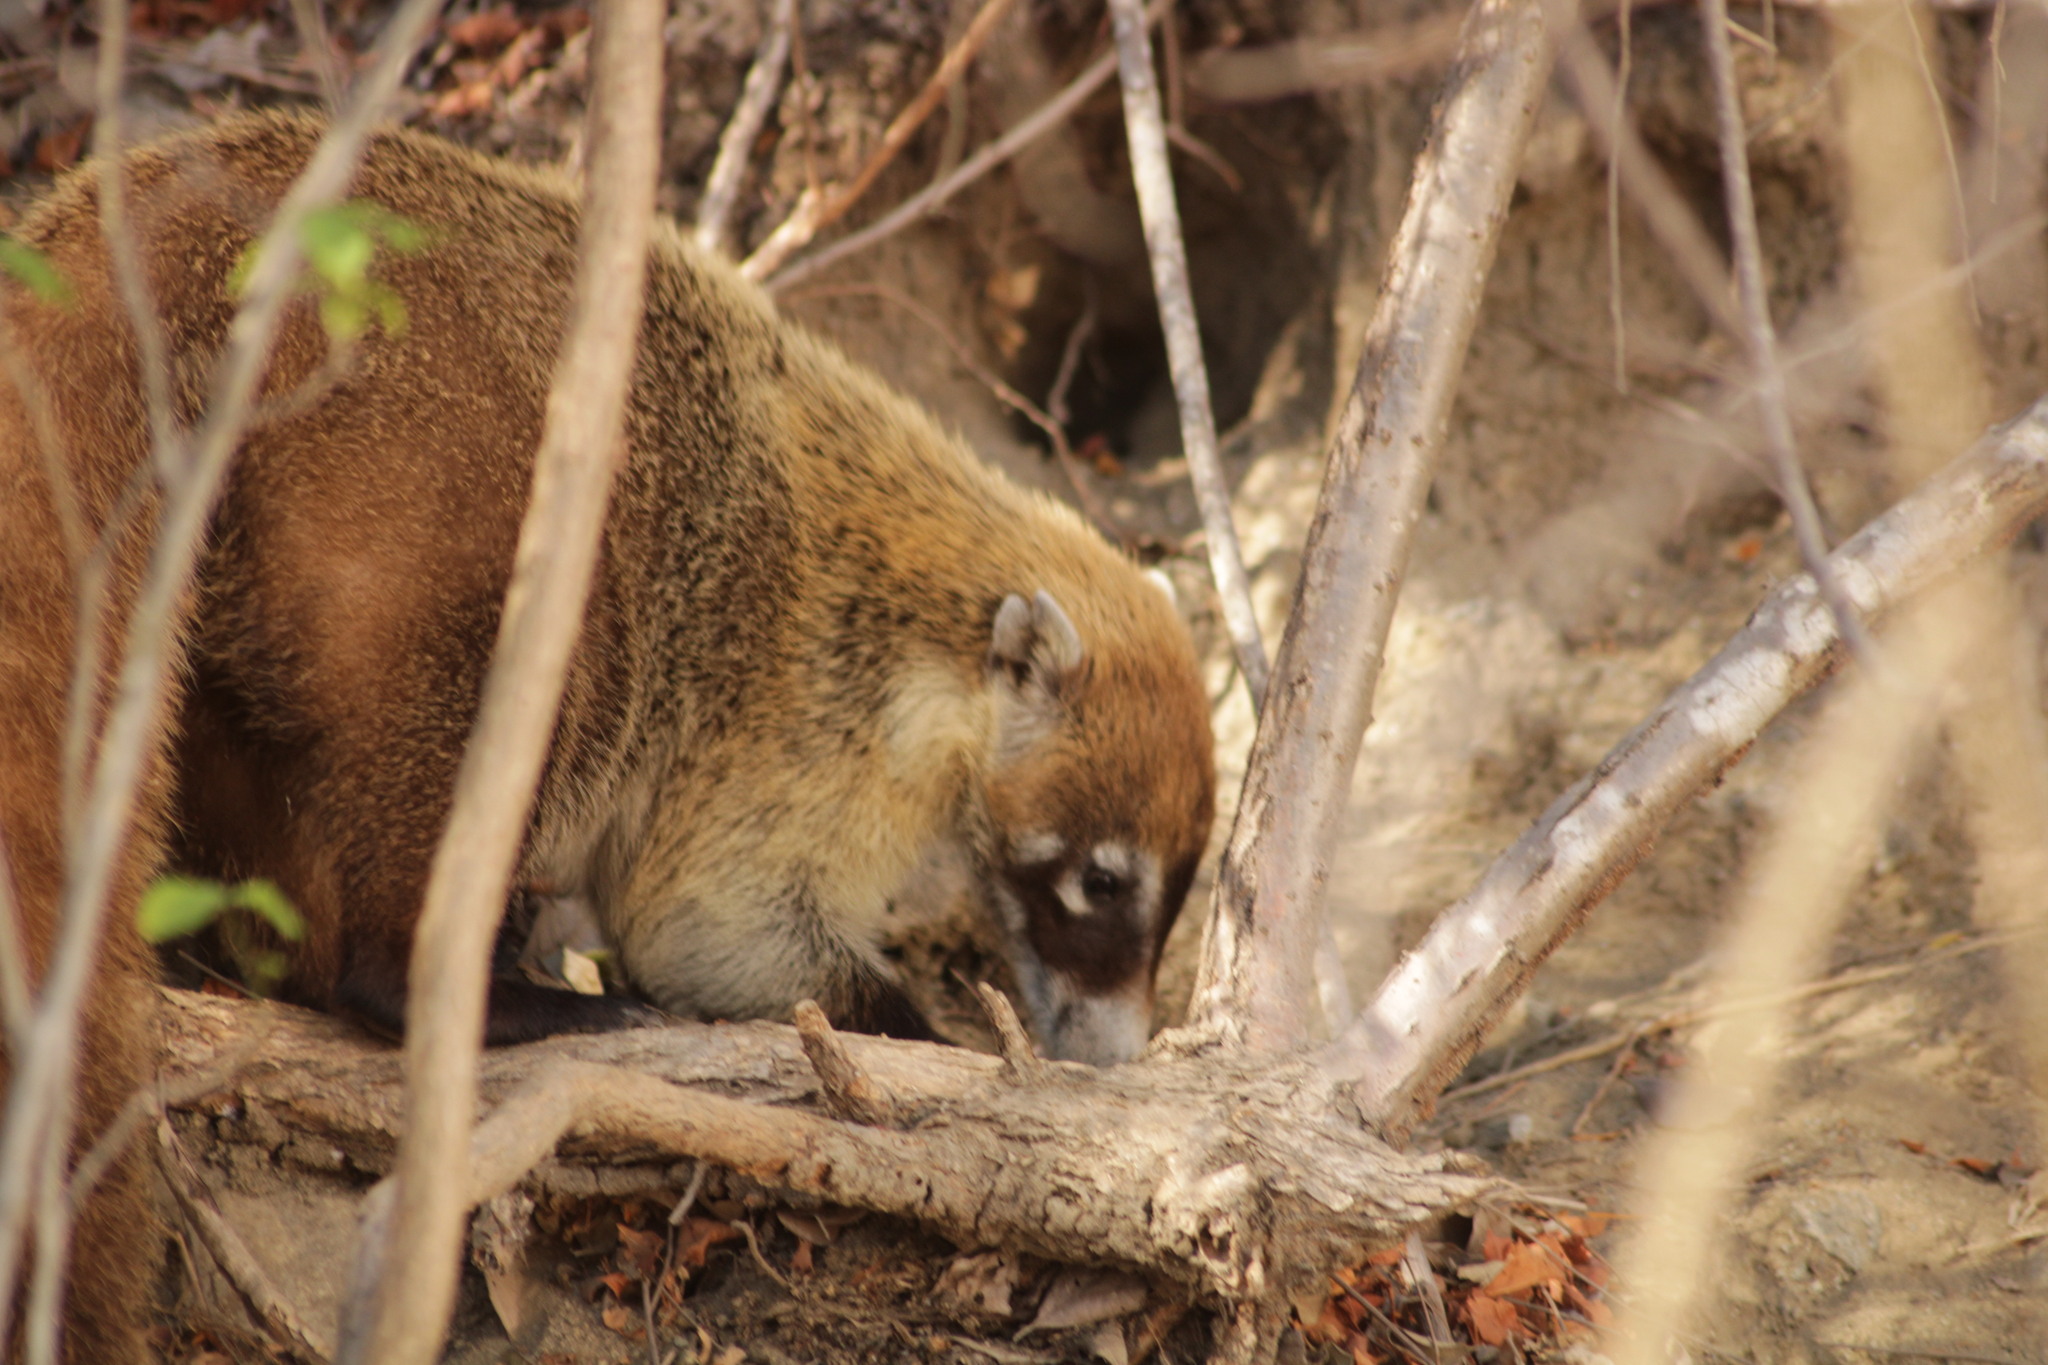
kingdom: Animalia
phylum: Chordata
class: Mammalia
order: Carnivora
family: Procyonidae
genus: Nasua
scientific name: Nasua narica
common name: White-nosed coati
